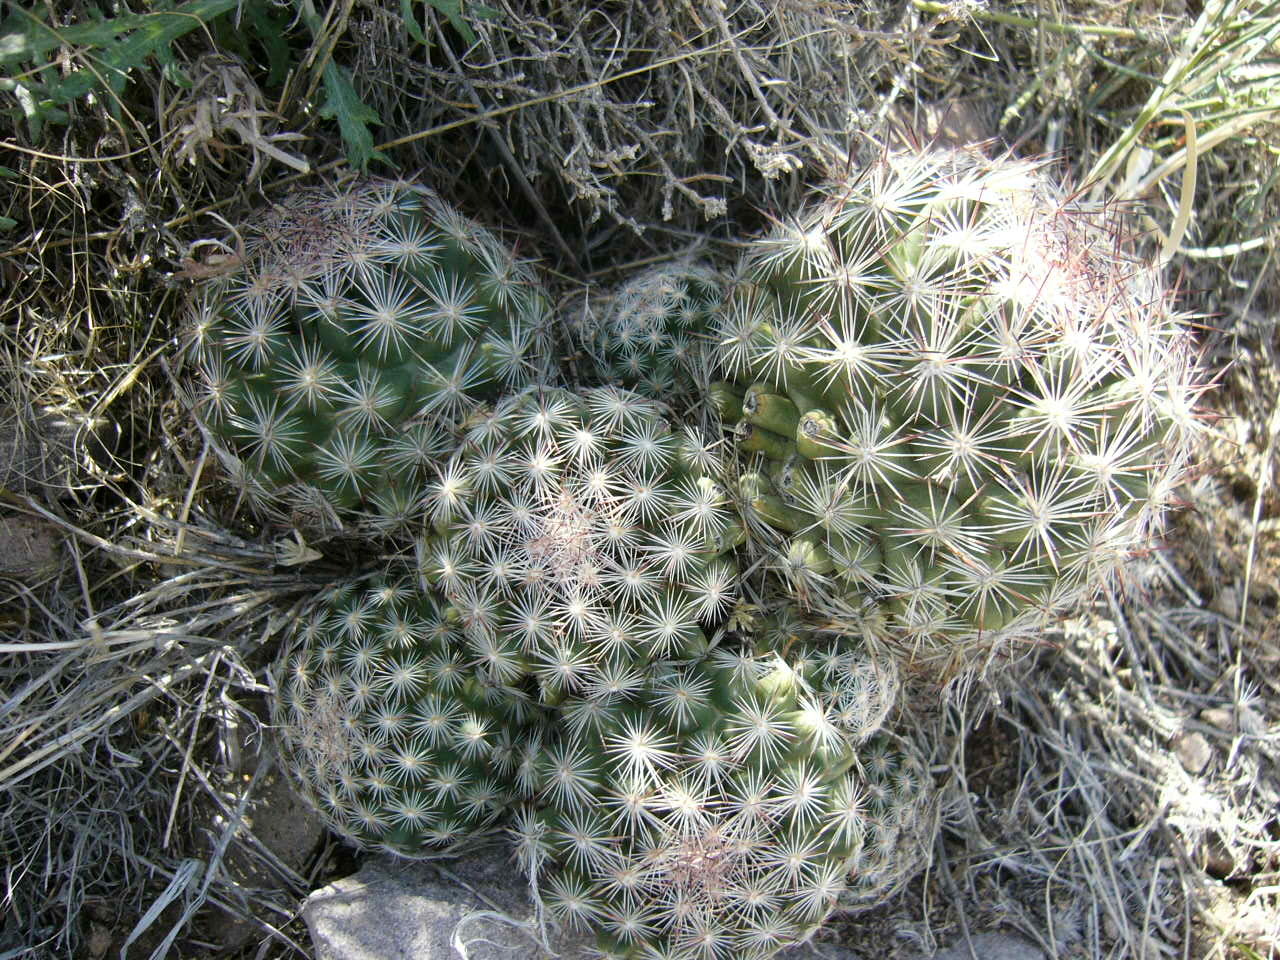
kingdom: Plantae
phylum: Tracheophyta
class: Magnoliopsida
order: Caryophyllales
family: Cactaceae
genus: Pelecyphora
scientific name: Pelecyphora vivipara
